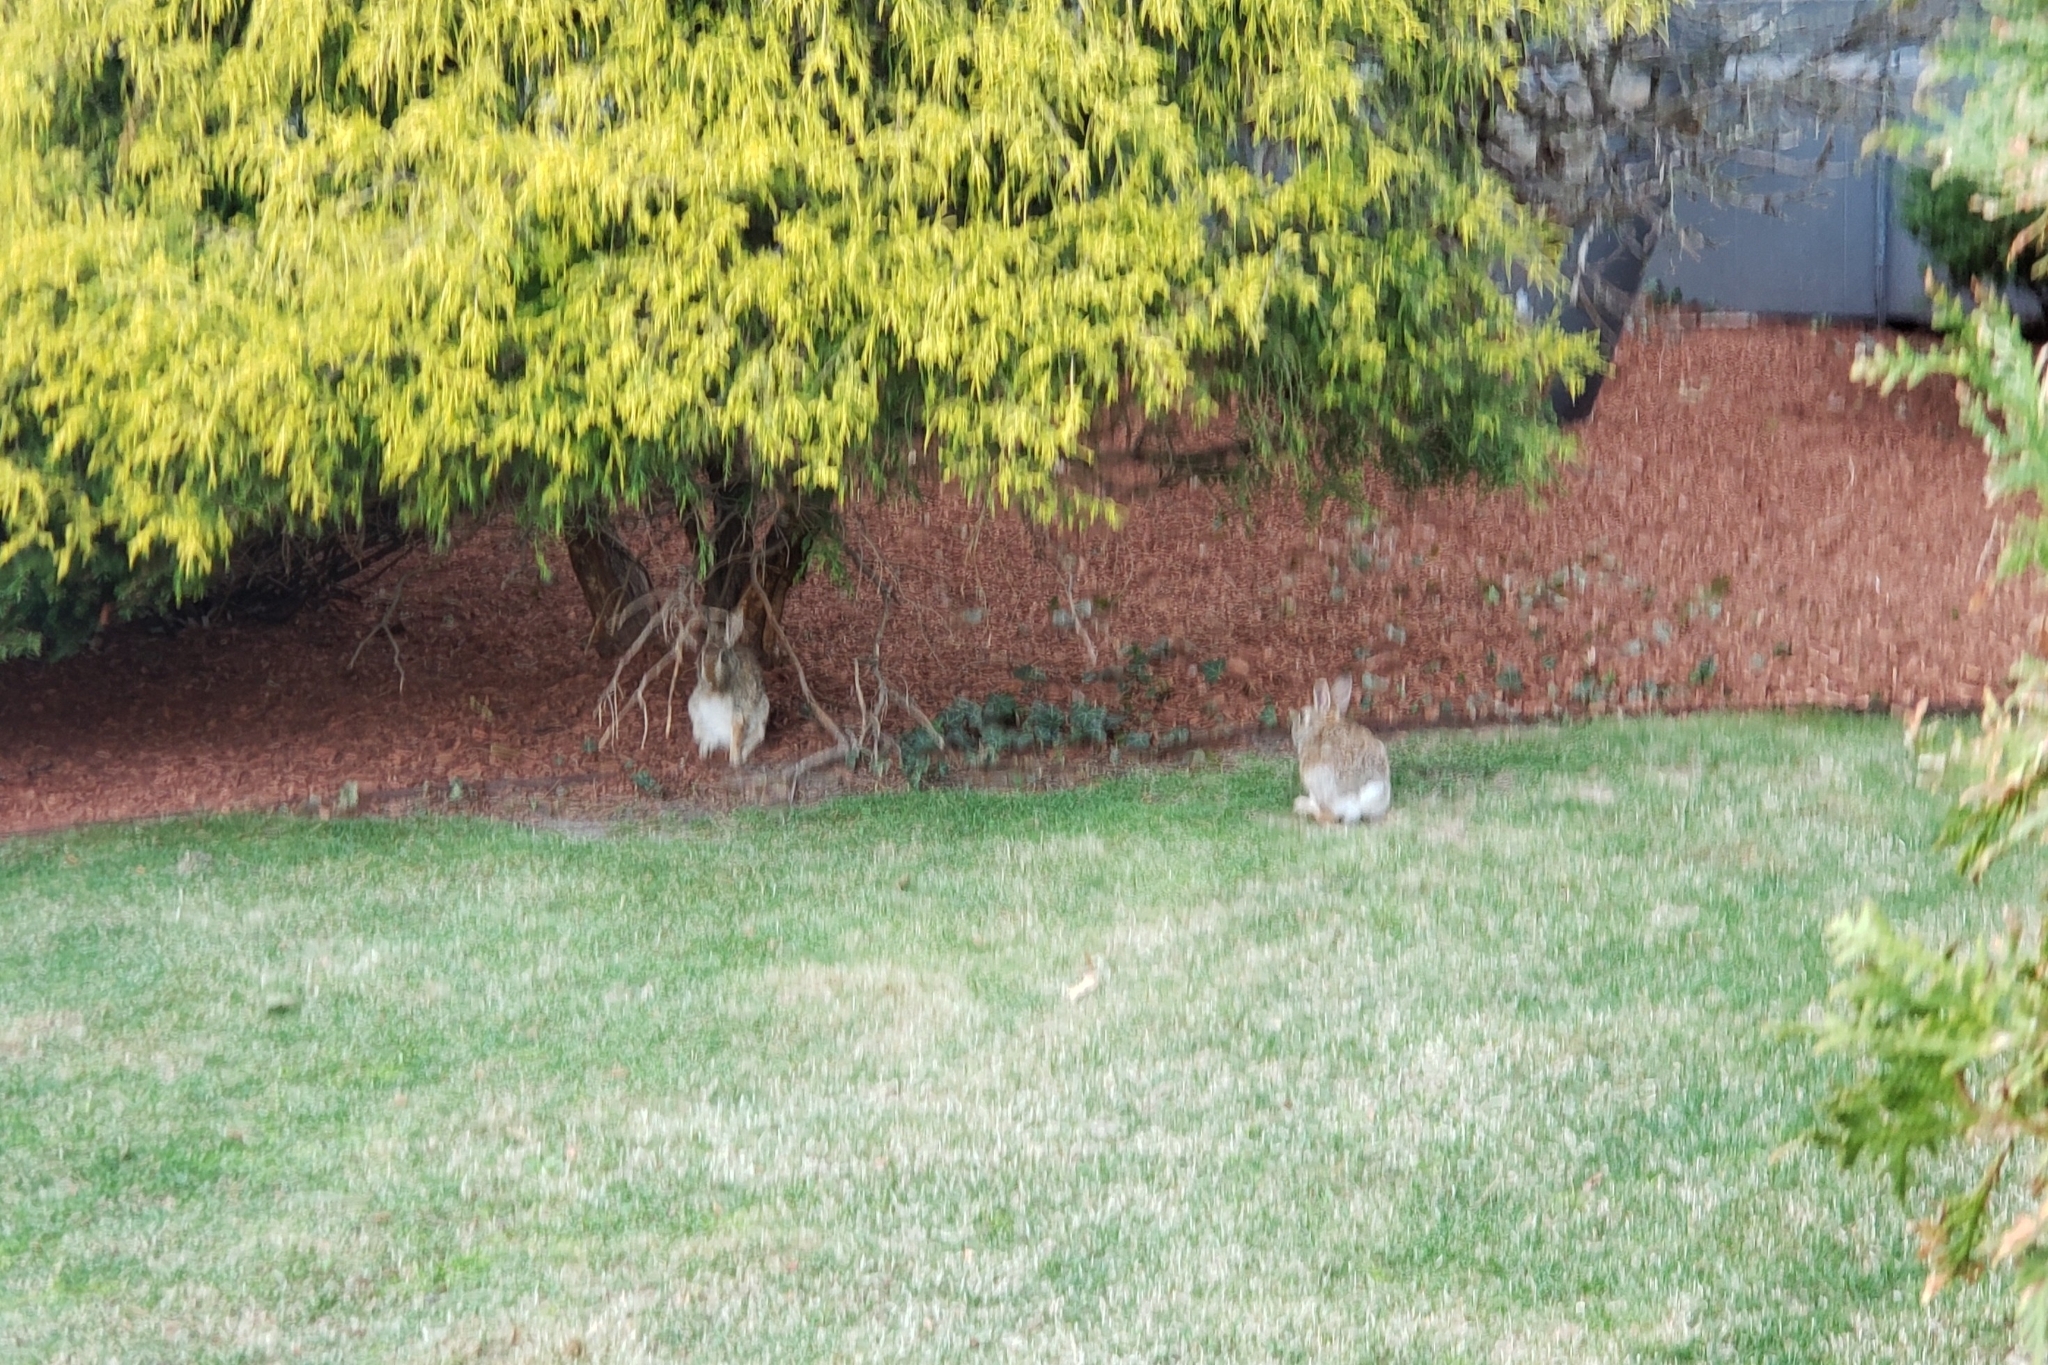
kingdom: Animalia
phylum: Chordata
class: Mammalia
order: Lagomorpha
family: Leporidae
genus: Sylvilagus
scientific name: Sylvilagus floridanus
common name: Eastern cottontail
